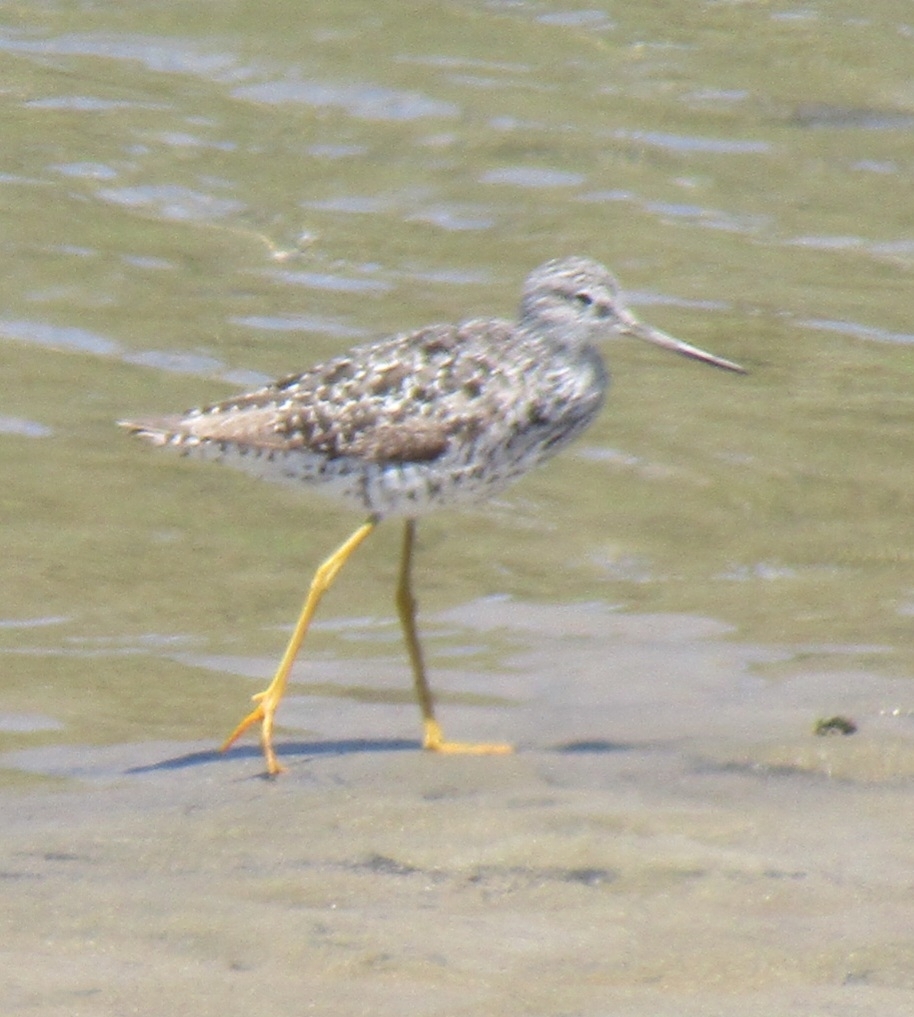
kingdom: Animalia
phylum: Chordata
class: Aves
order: Charadriiformes
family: Scolopacidae
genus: Tringa
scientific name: Tringa melanoleuca
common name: Greater yellowlegs
